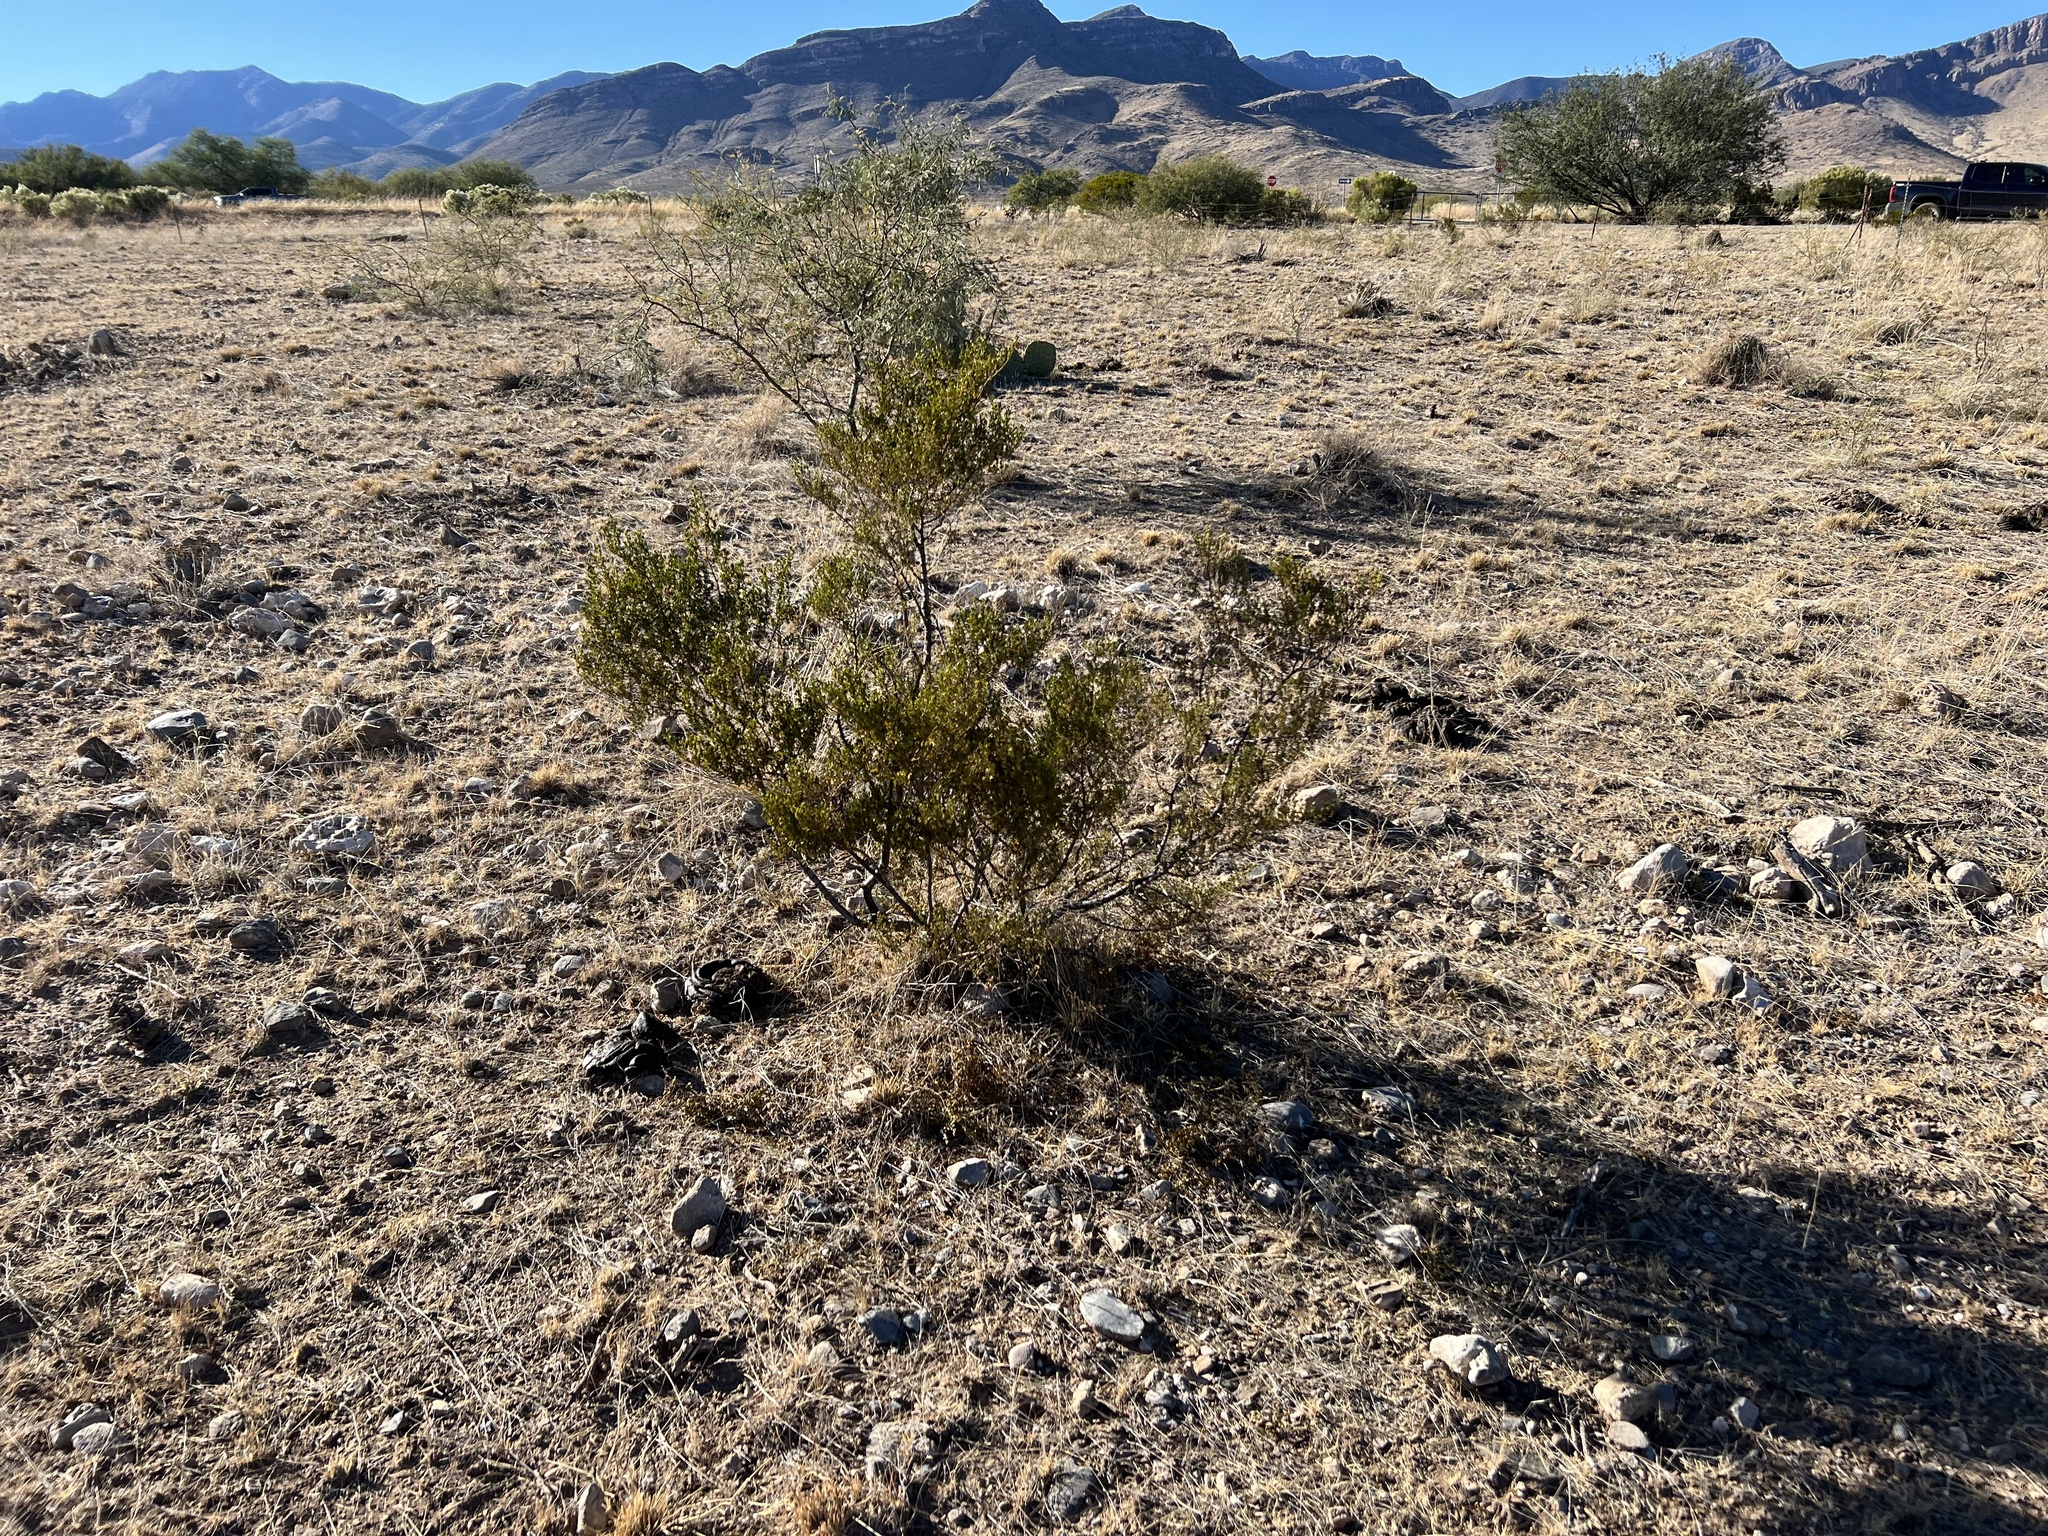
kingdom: Plantae
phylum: Tracheophyta
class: Magnoliopsida
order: Zygophyllales
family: Zygophyllaceae
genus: Larrea
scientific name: Larrea tridentata
